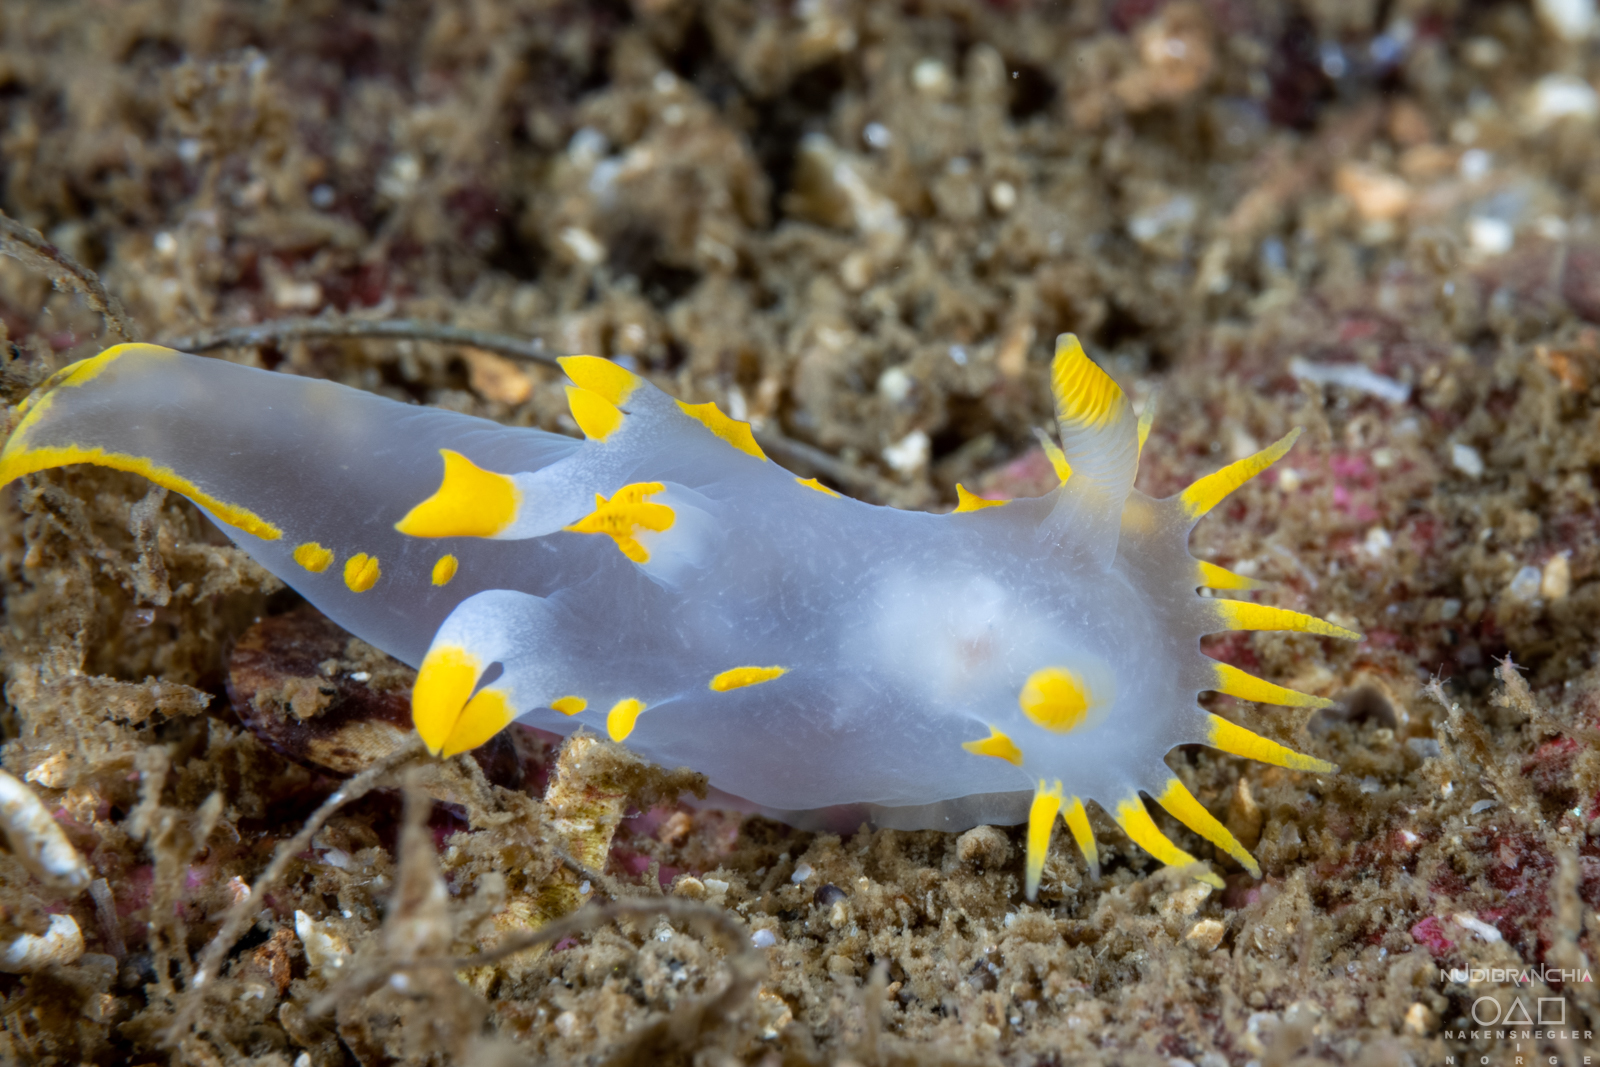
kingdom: Animalia
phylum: Mollusca
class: Gastropoda
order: Nudibranchia
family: Polyceridae
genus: Polycera
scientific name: Polycera faeroensis
